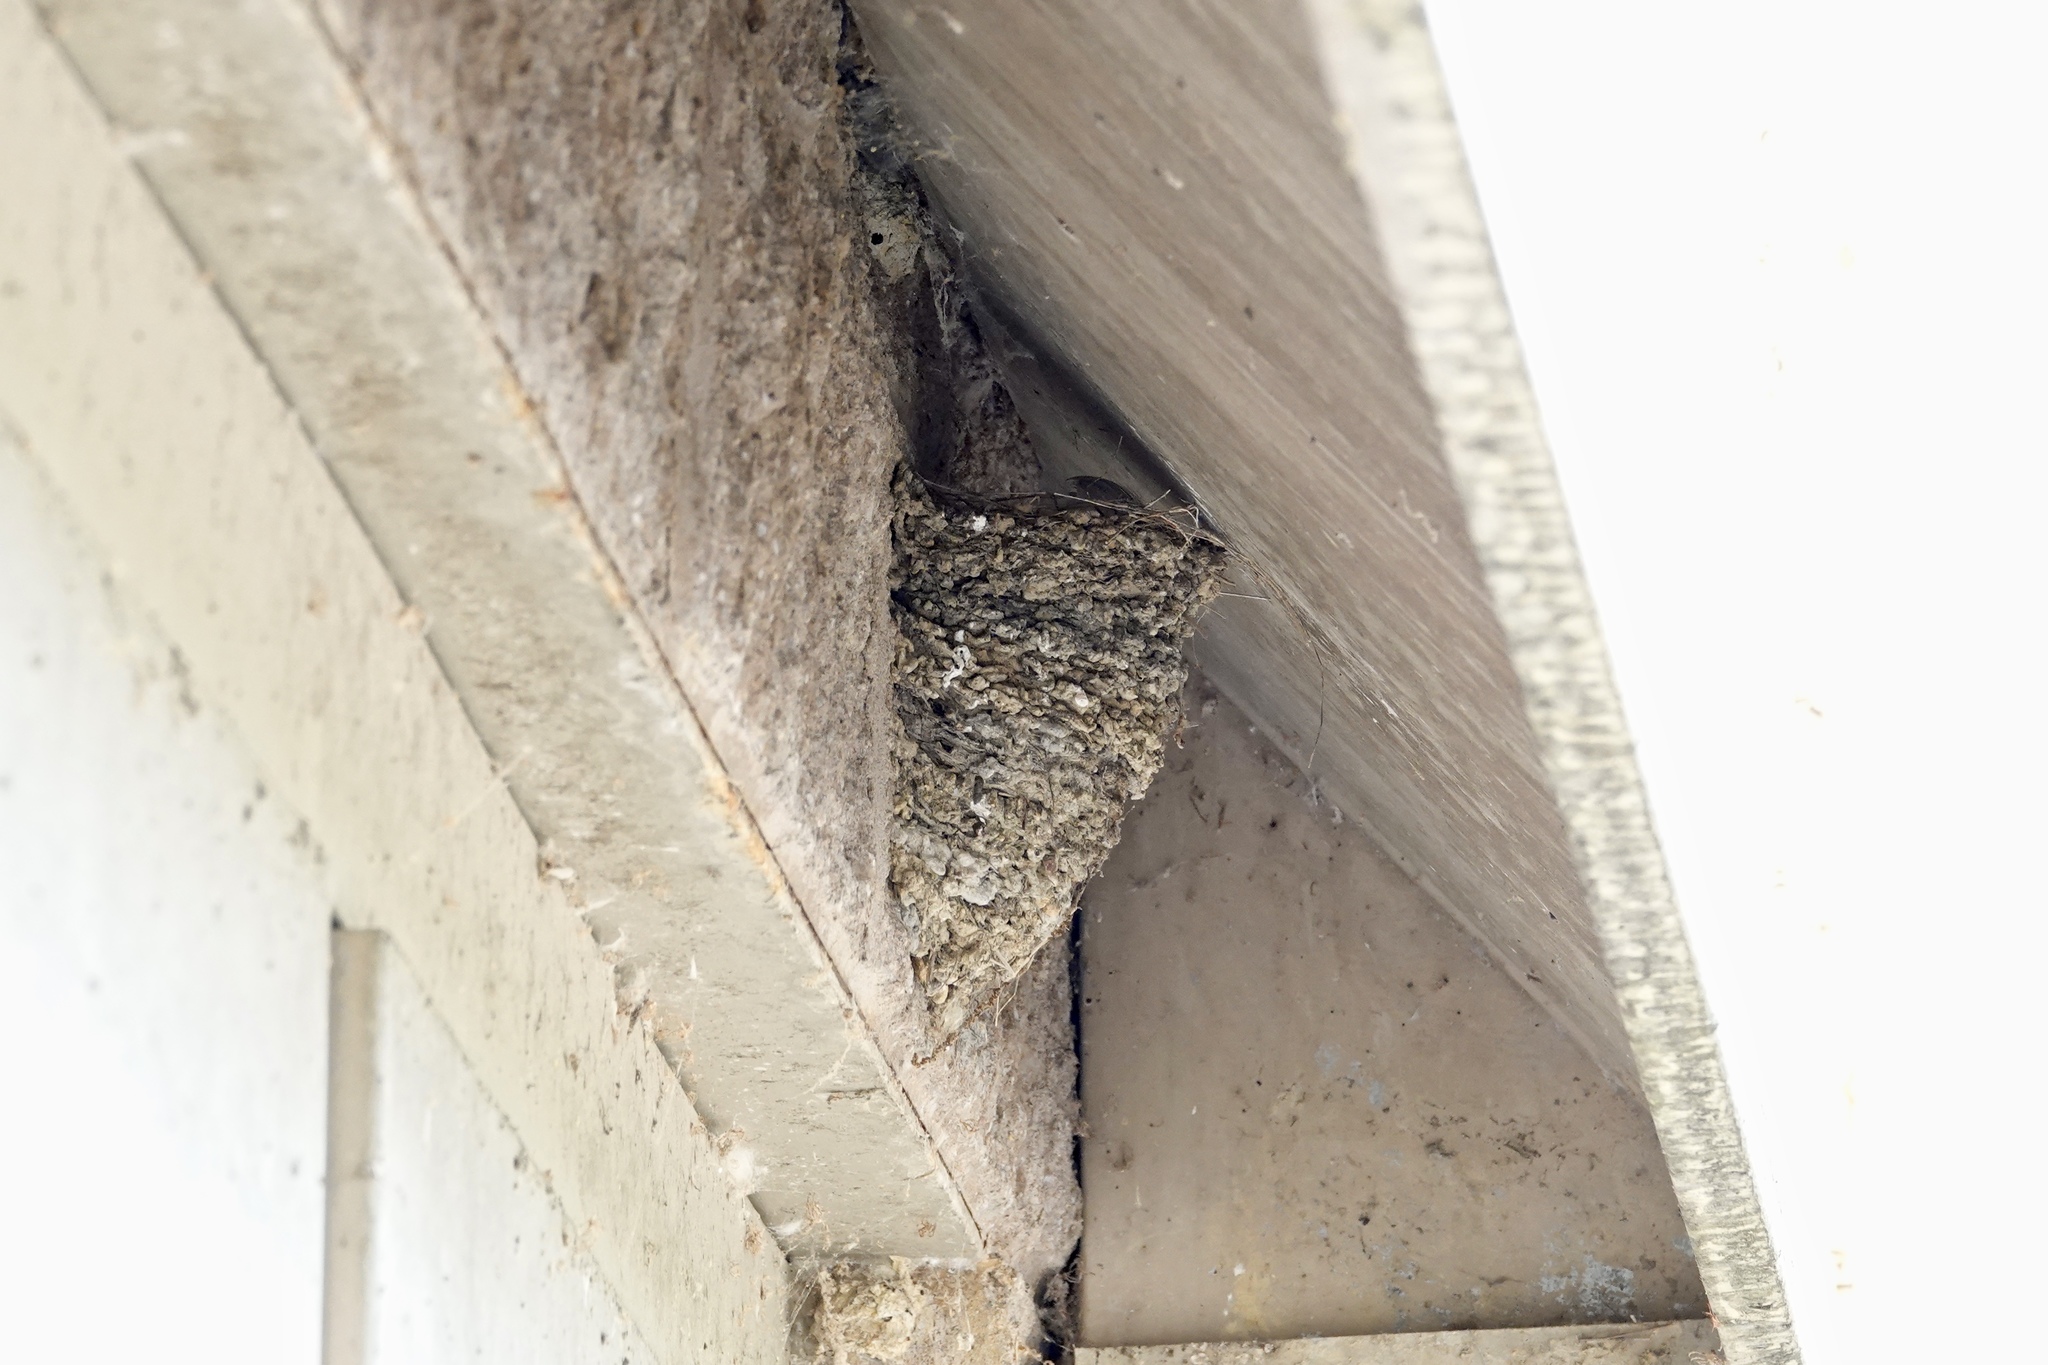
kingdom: Animalia
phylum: Chordata
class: Aves
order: Passeriformes
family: Hirundinidae
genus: Hirundo
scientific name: Hirundo rustica
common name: Barn swallow
